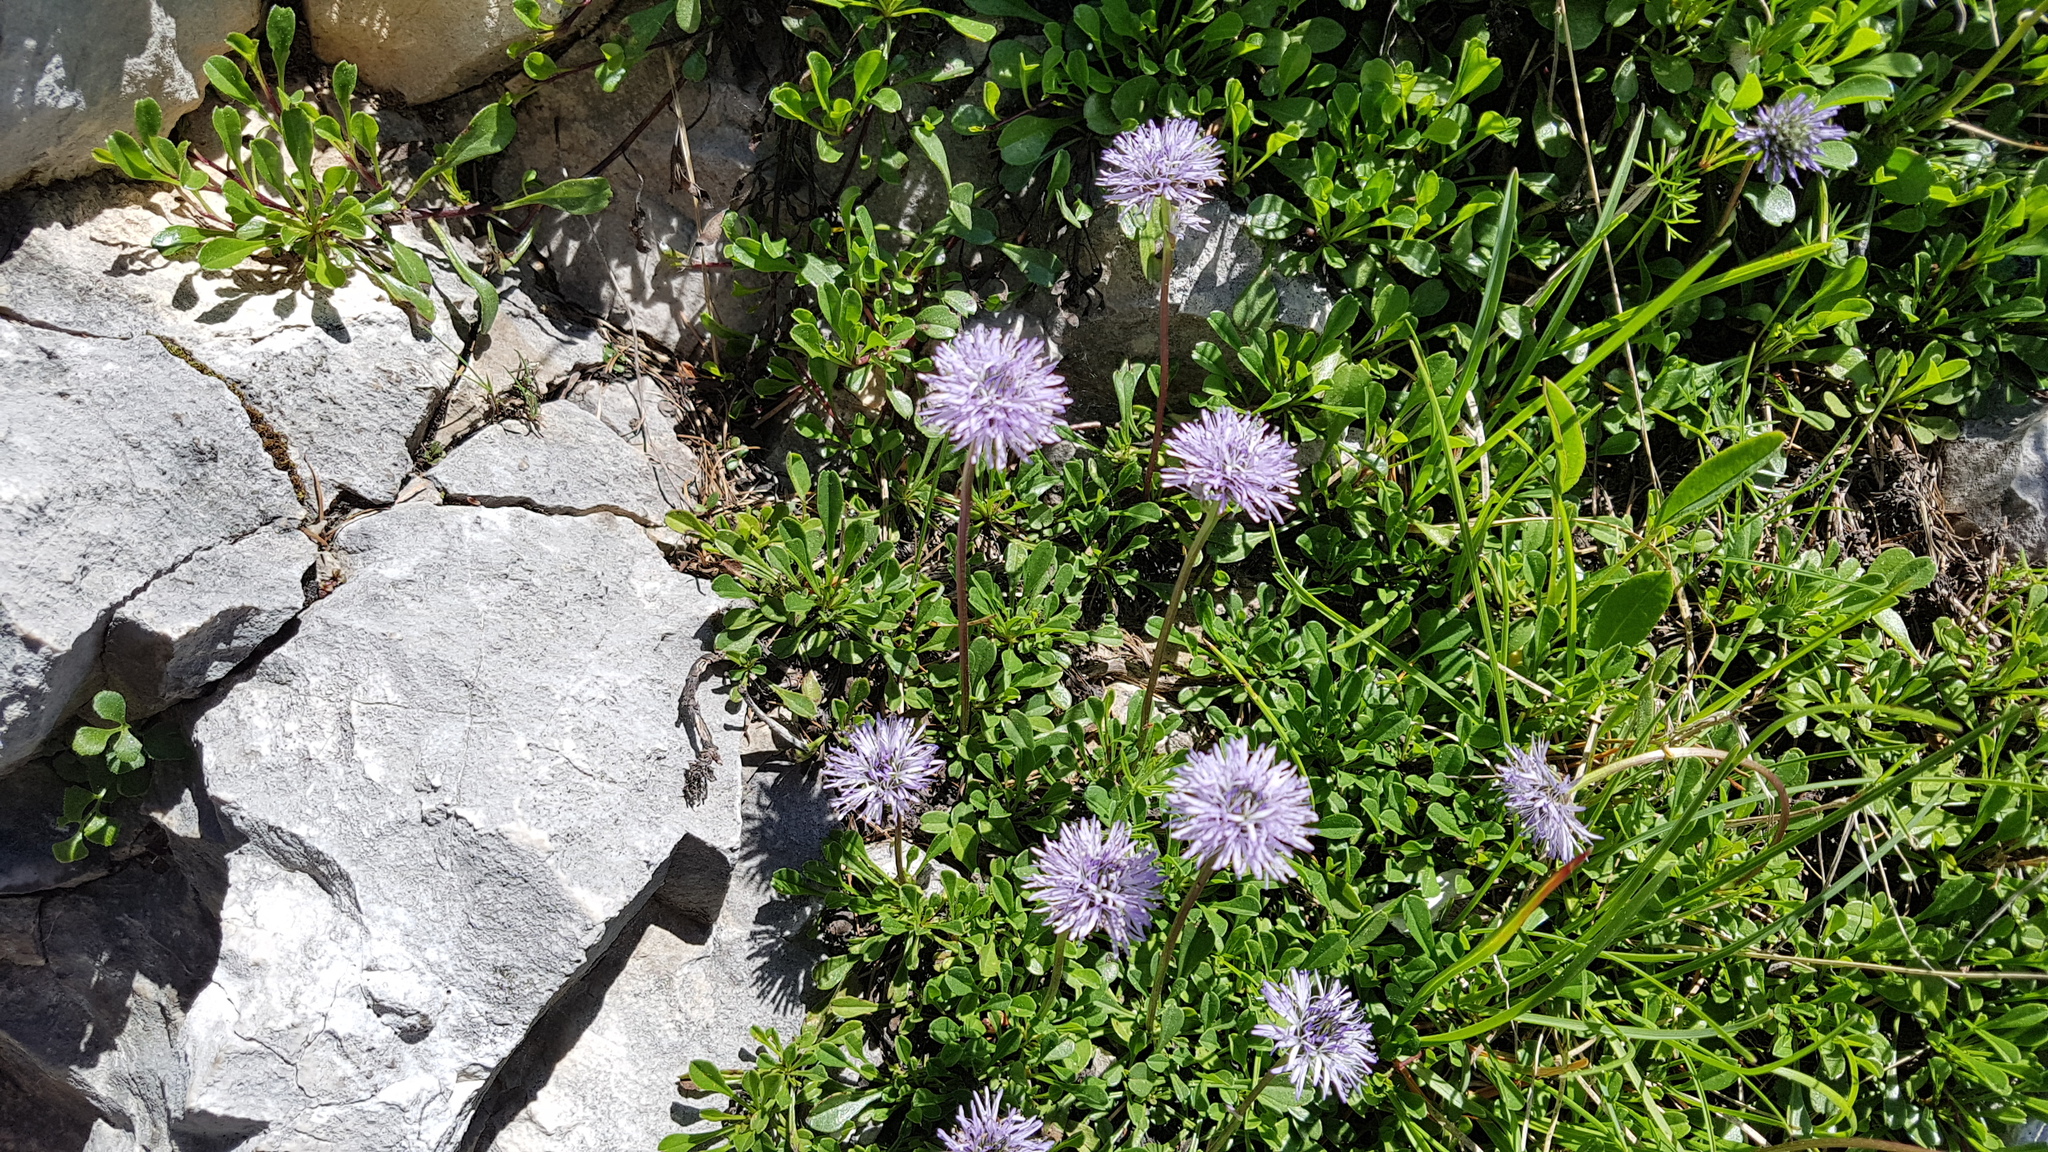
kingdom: Plantae
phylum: Tracheophyta
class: Magnoliopsida
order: Lamiales
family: Plantaginaceae
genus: Globularia
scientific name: Globularia cordifolia
